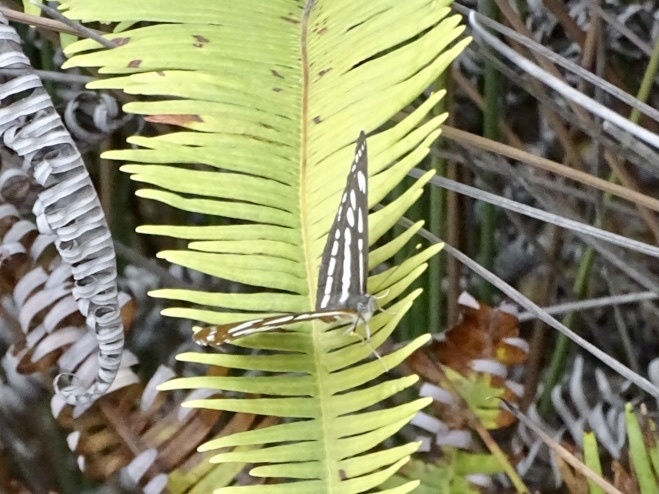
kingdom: Animalia
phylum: Arthropoda
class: Insecta
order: Lepidoptera
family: Nymphalidae
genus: Neptis
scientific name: Neptis hylas
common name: Common sailer
